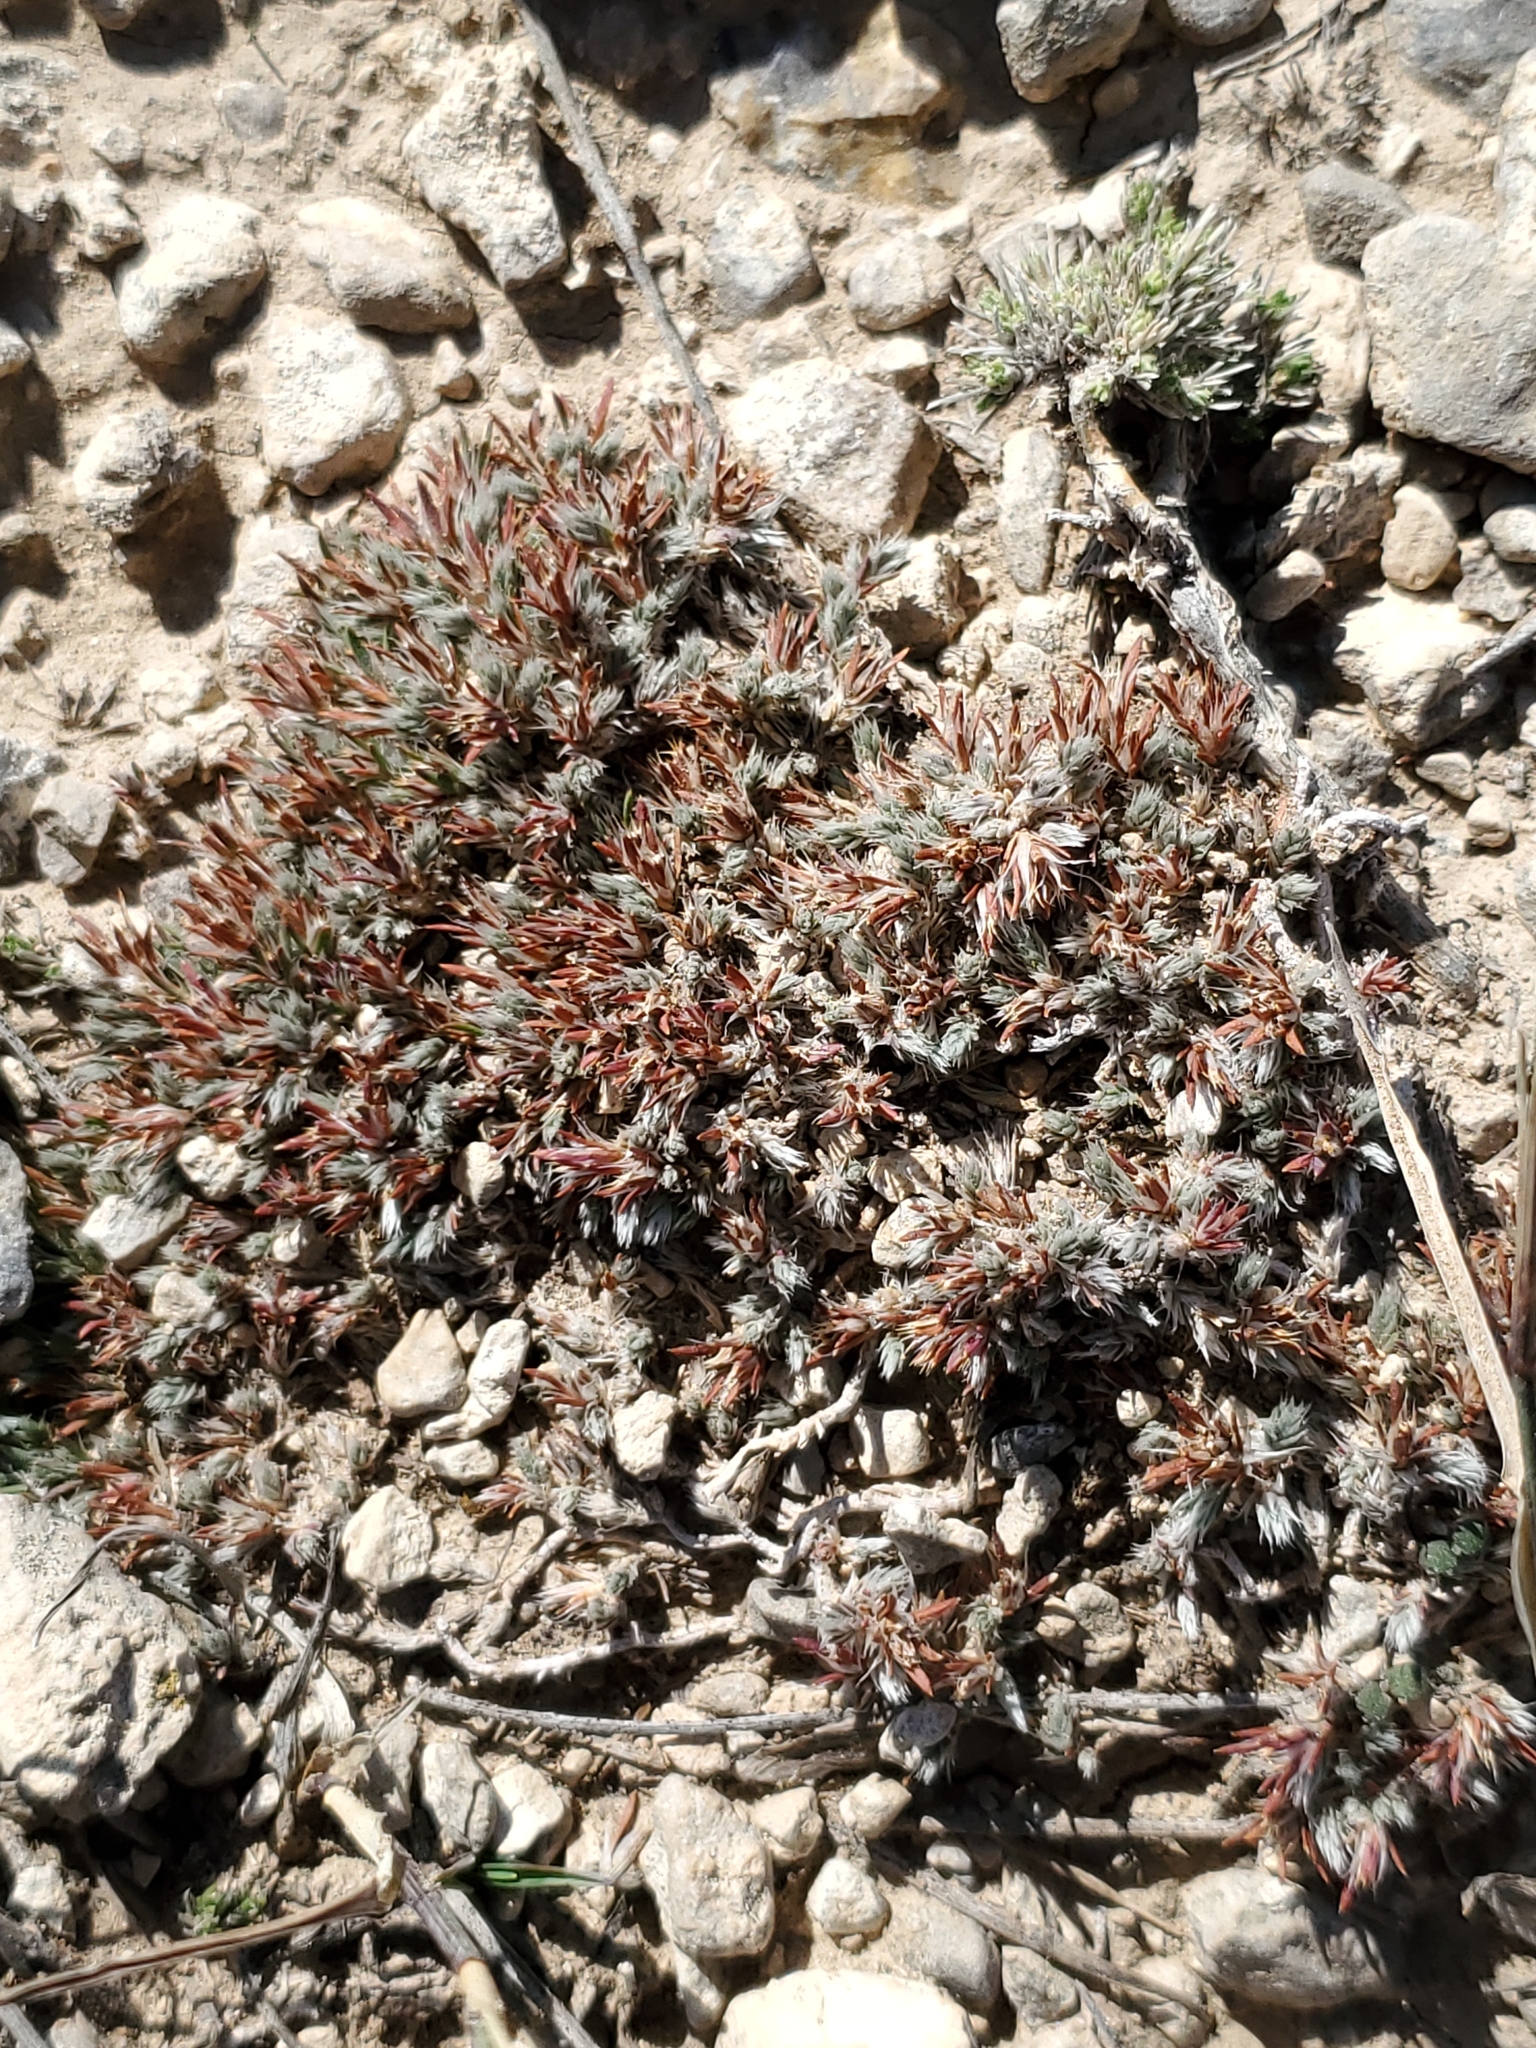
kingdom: Plantae
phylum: Tracheophyta
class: Magnoliopsida
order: Caryophyllales
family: Caryophyllaceae
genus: Paronychia
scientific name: Paronychia sessiliflora
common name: Creeping nailwort
